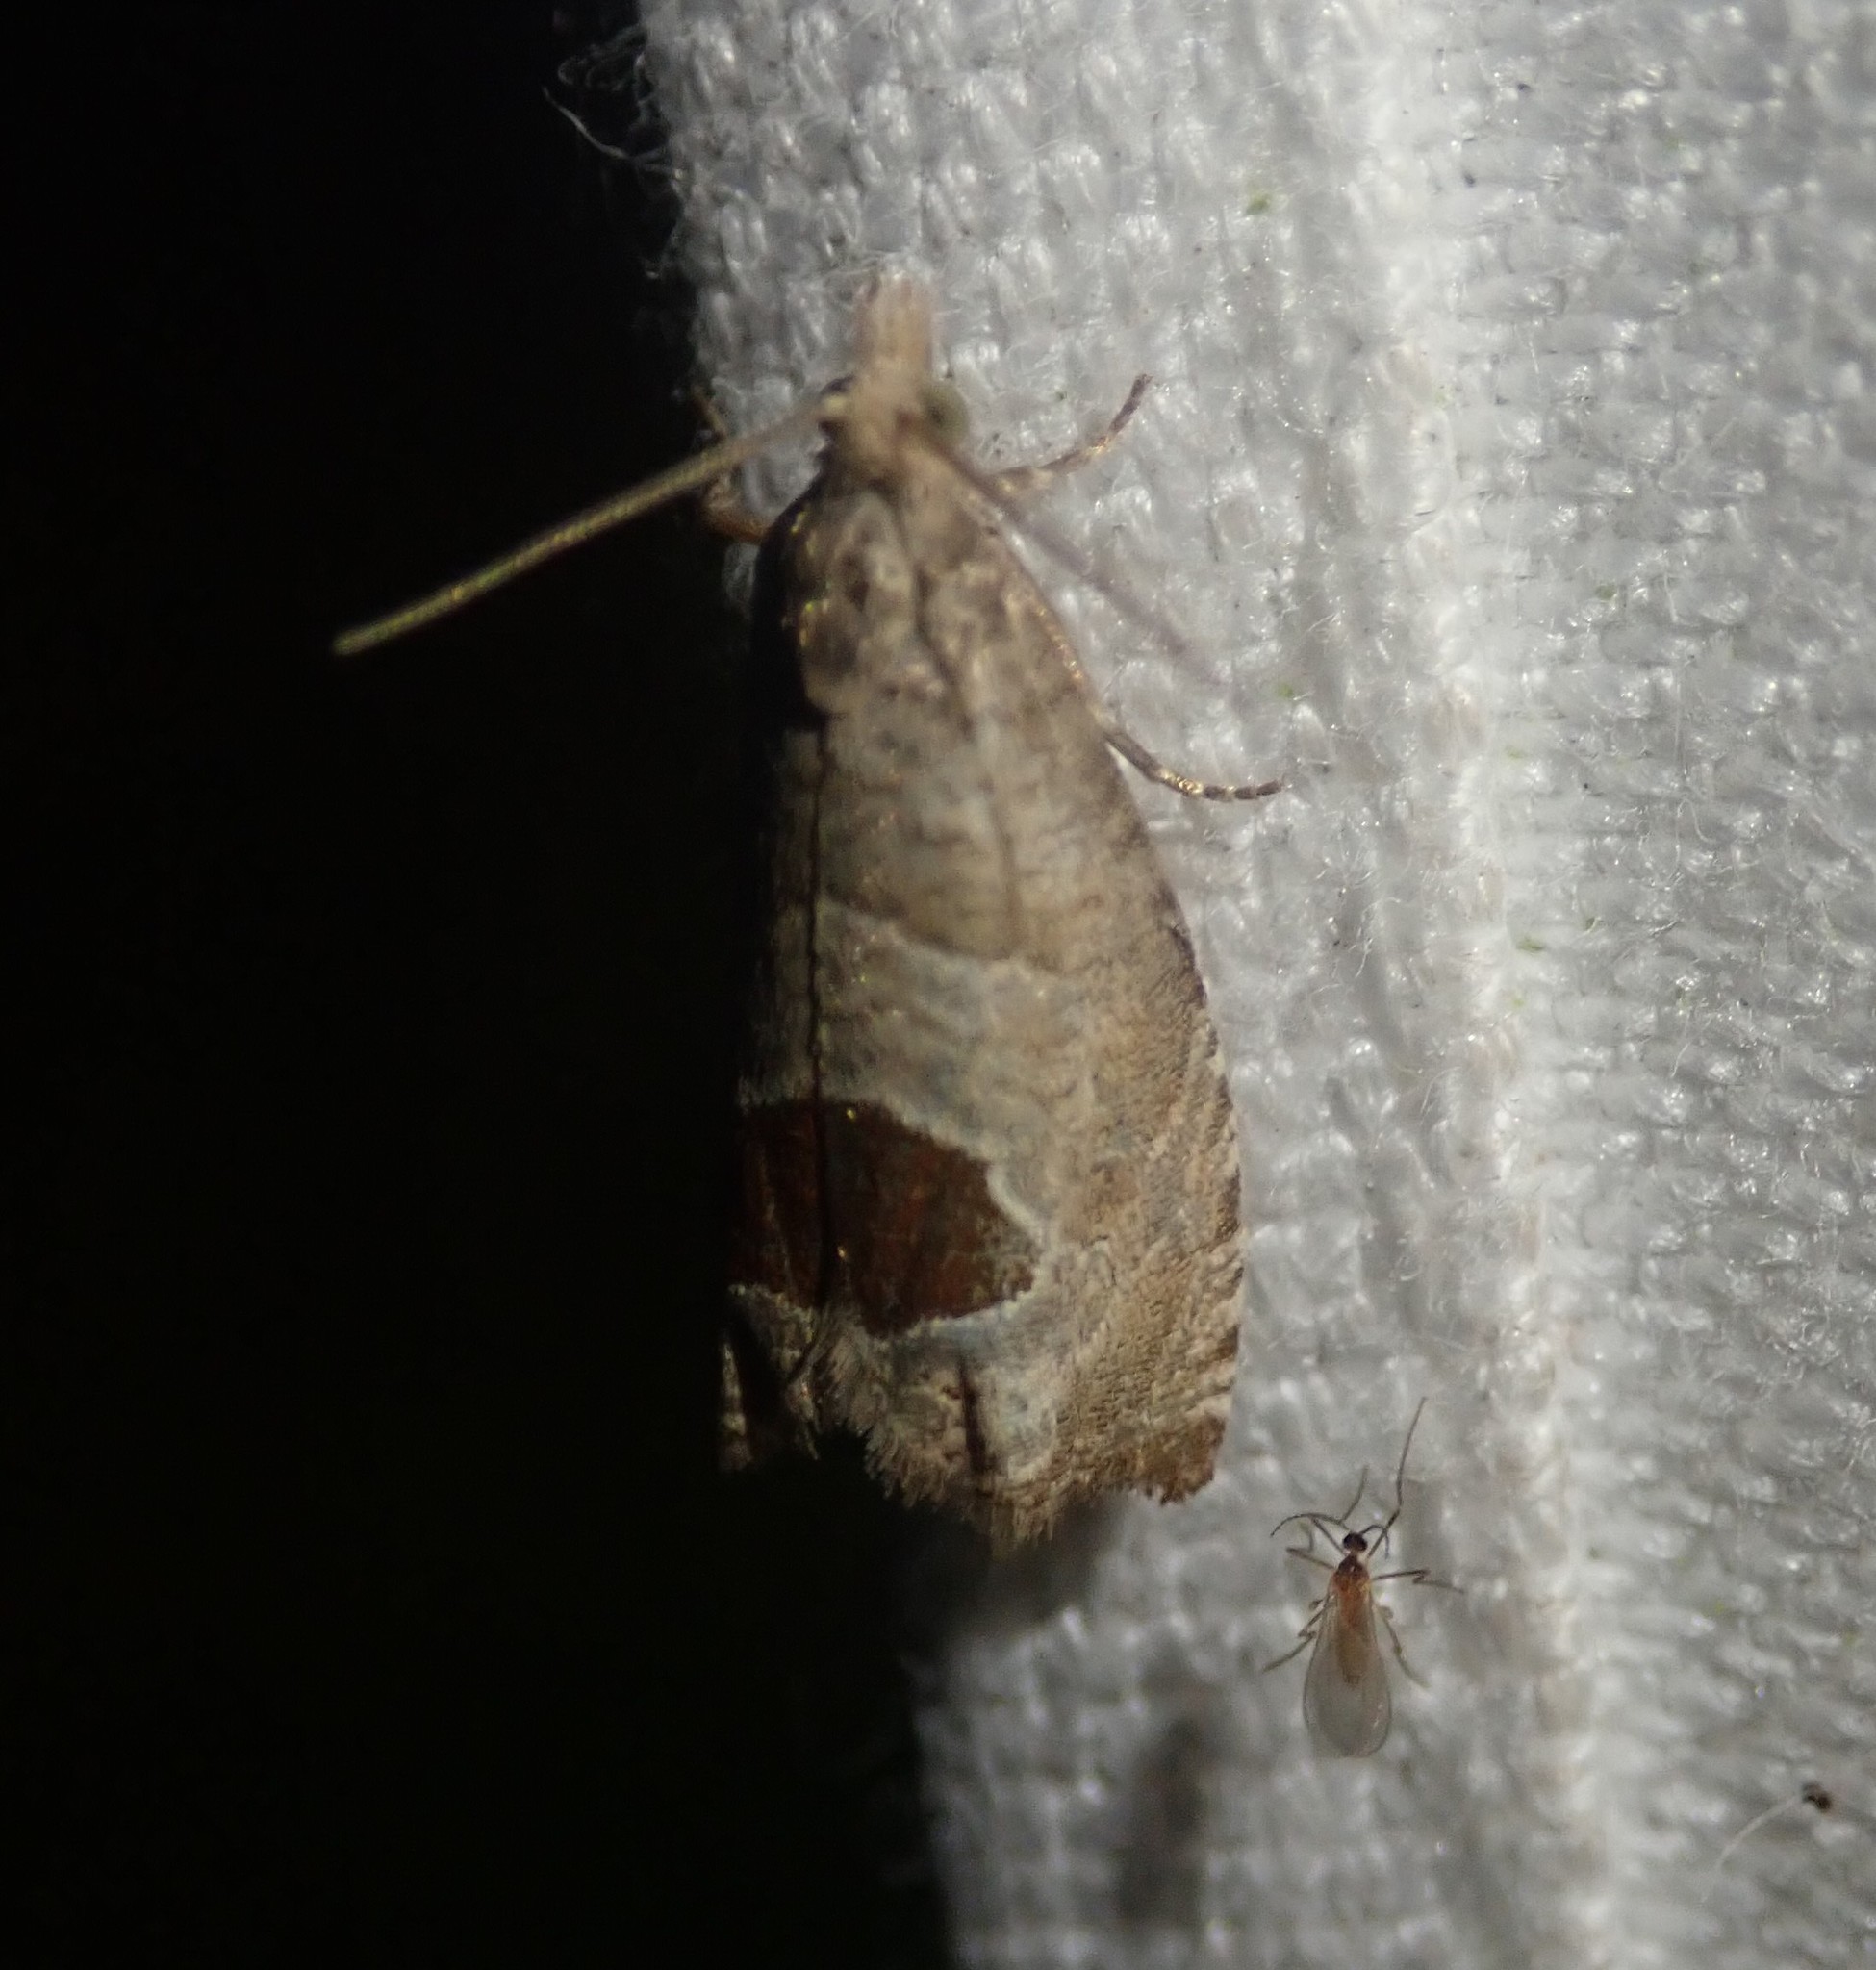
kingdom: Animalia
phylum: Arthropoda
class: Insecta
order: Lepidoptera
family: Tortricidae
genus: Notocelia
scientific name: Notocelia uddmanniana
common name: Bramble shoot moth
